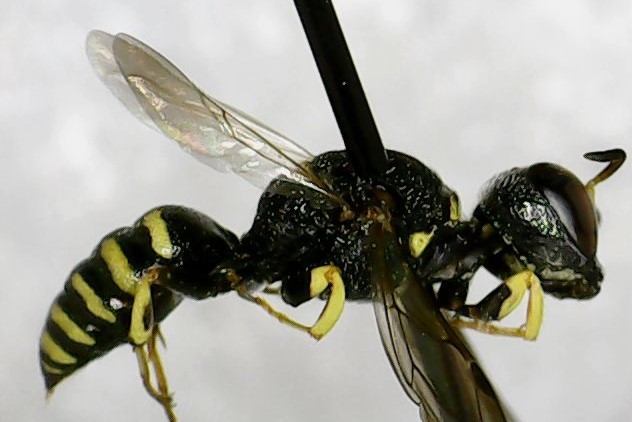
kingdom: Animalia
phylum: Arthropoda
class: Insecta
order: Hymenoptera
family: Crabronidae
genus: Lestica
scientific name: Lestica confluenta
